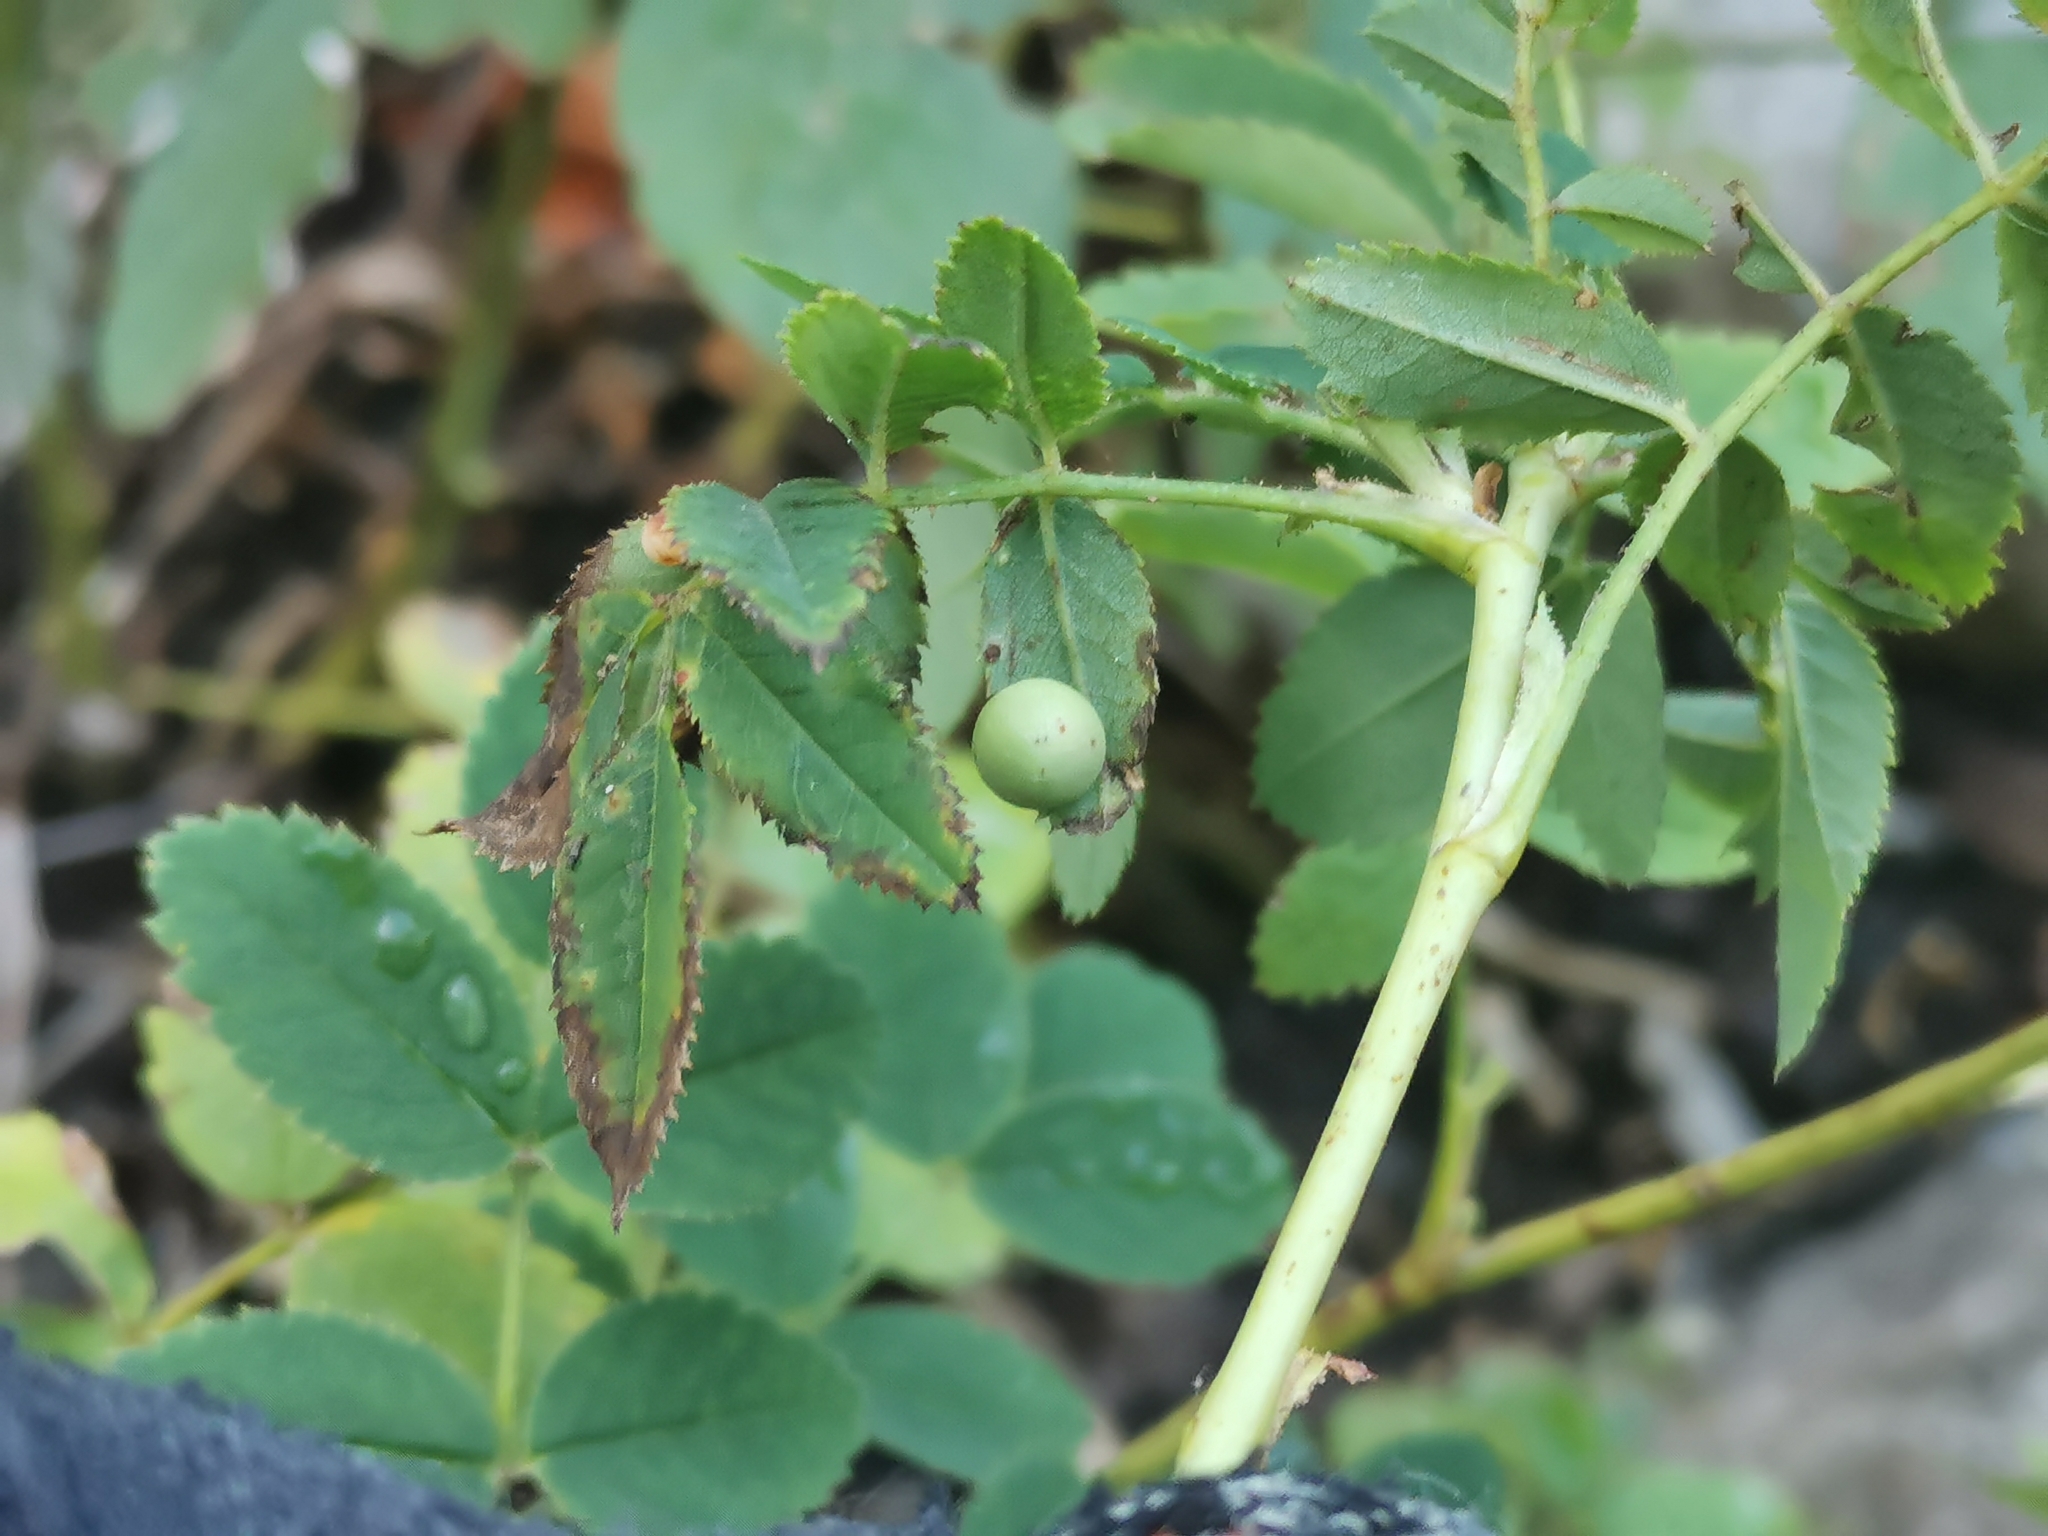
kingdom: Animalia
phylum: Arthropoda
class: Insecta
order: Hymenoptera
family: Cynipidae
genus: Diplolepis
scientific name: Diplolepis
